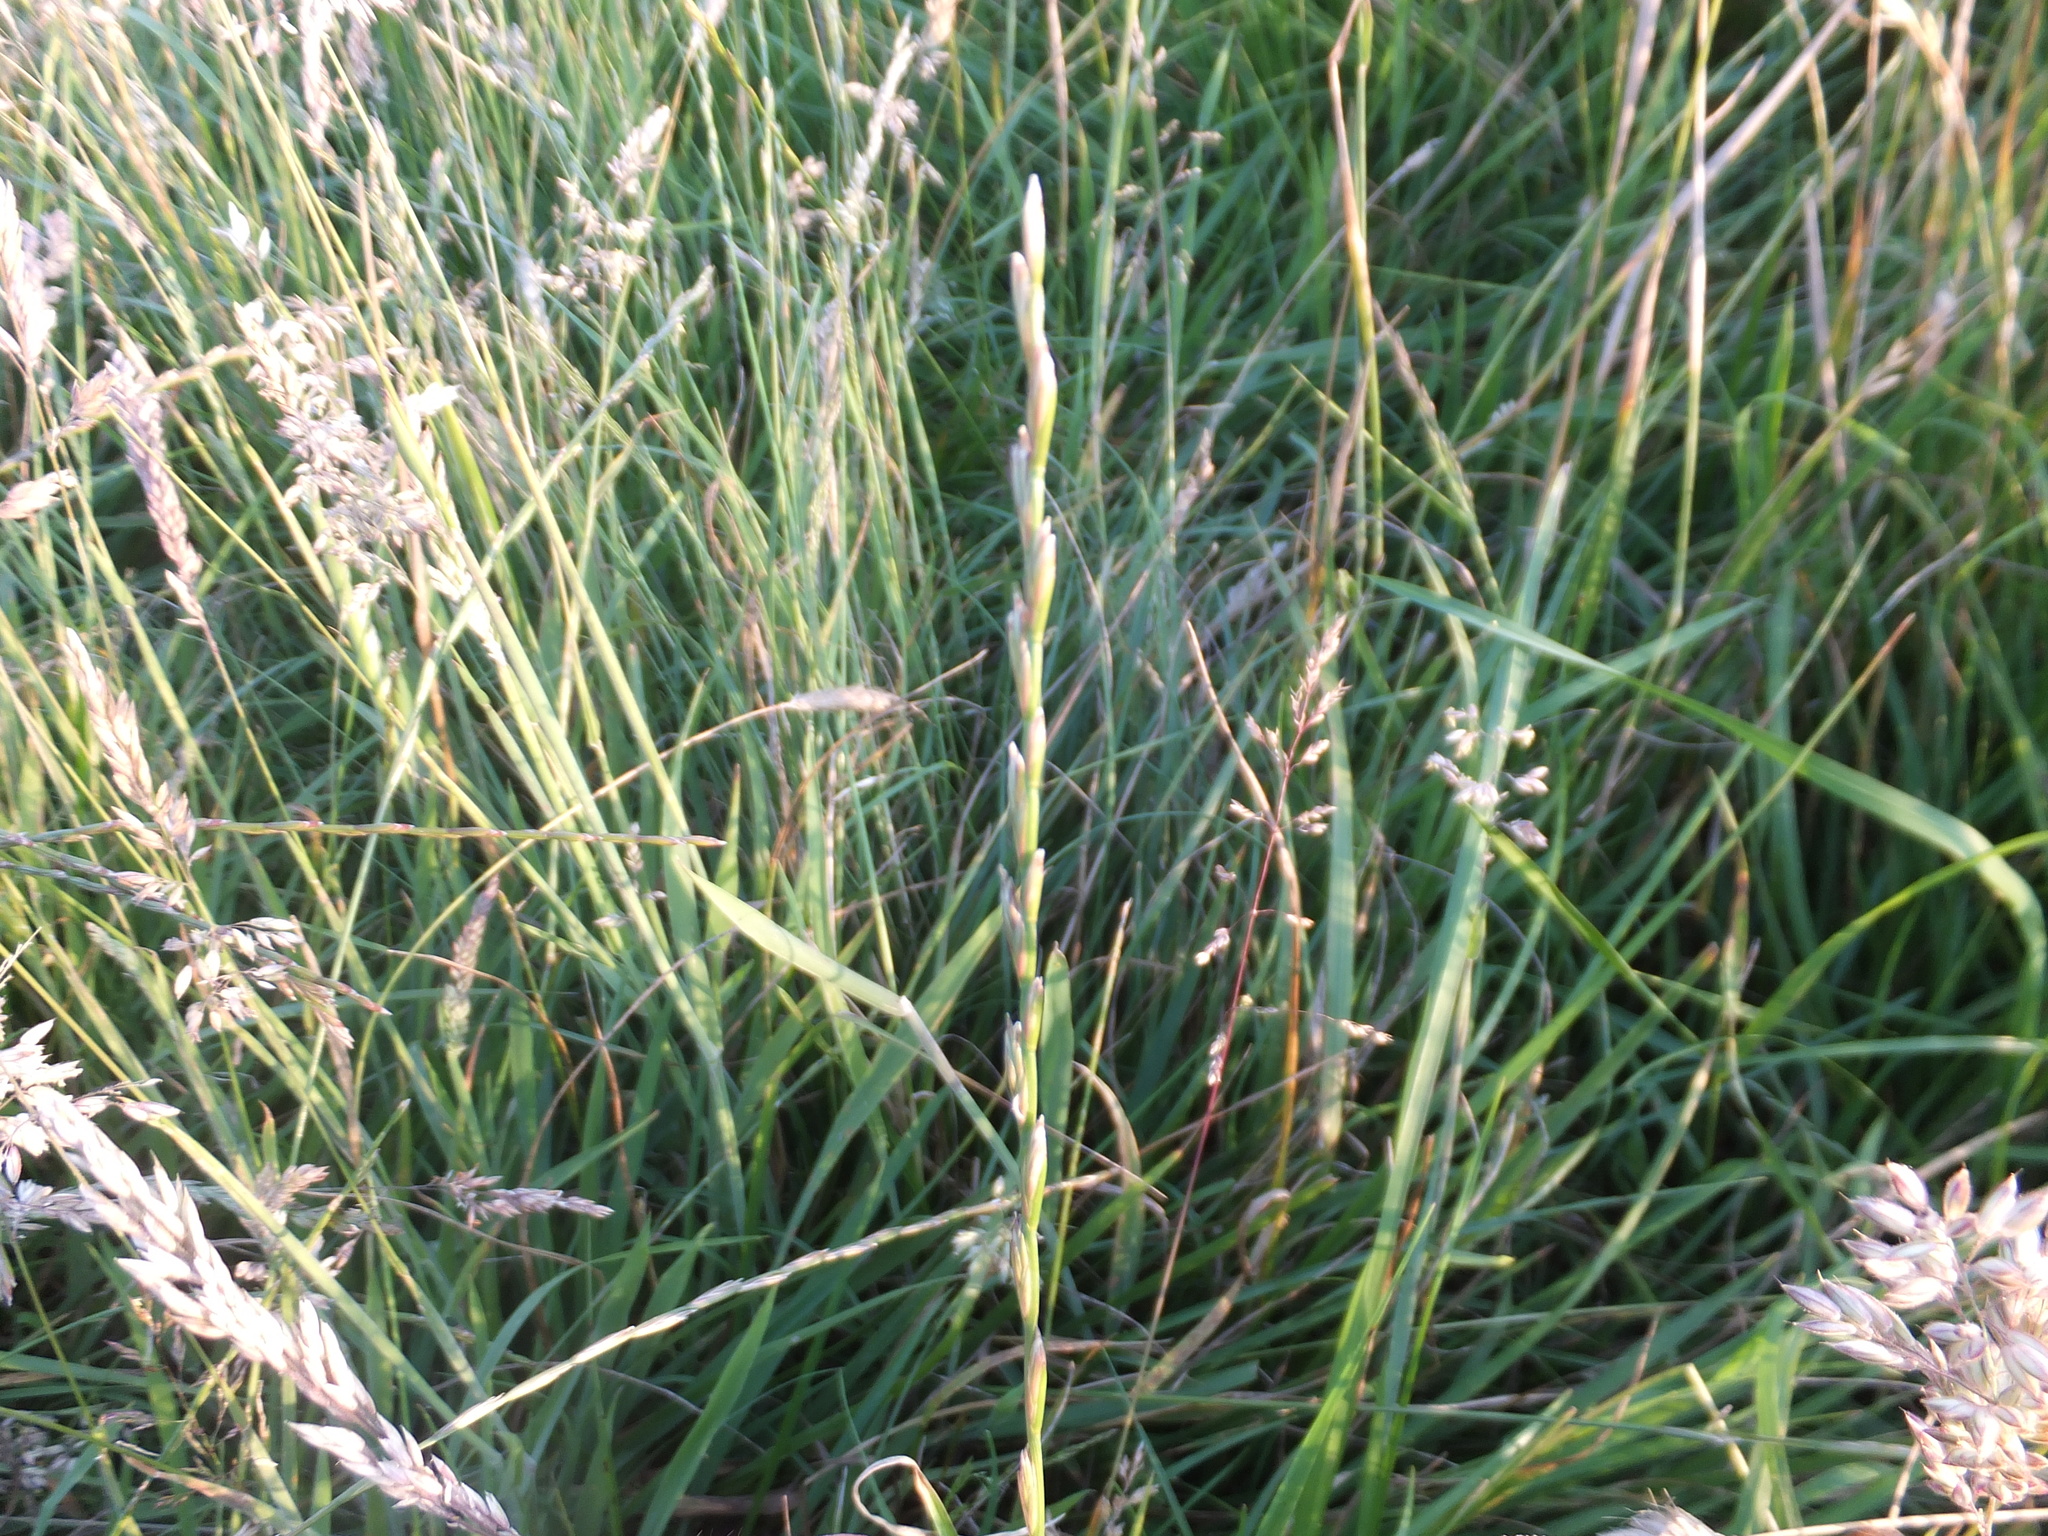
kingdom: Plantae
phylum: Tracheophyta
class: Liliopsida
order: Poales
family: Poaceae
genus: Lolium
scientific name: Lolium perenne
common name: Perennial ryegrass
